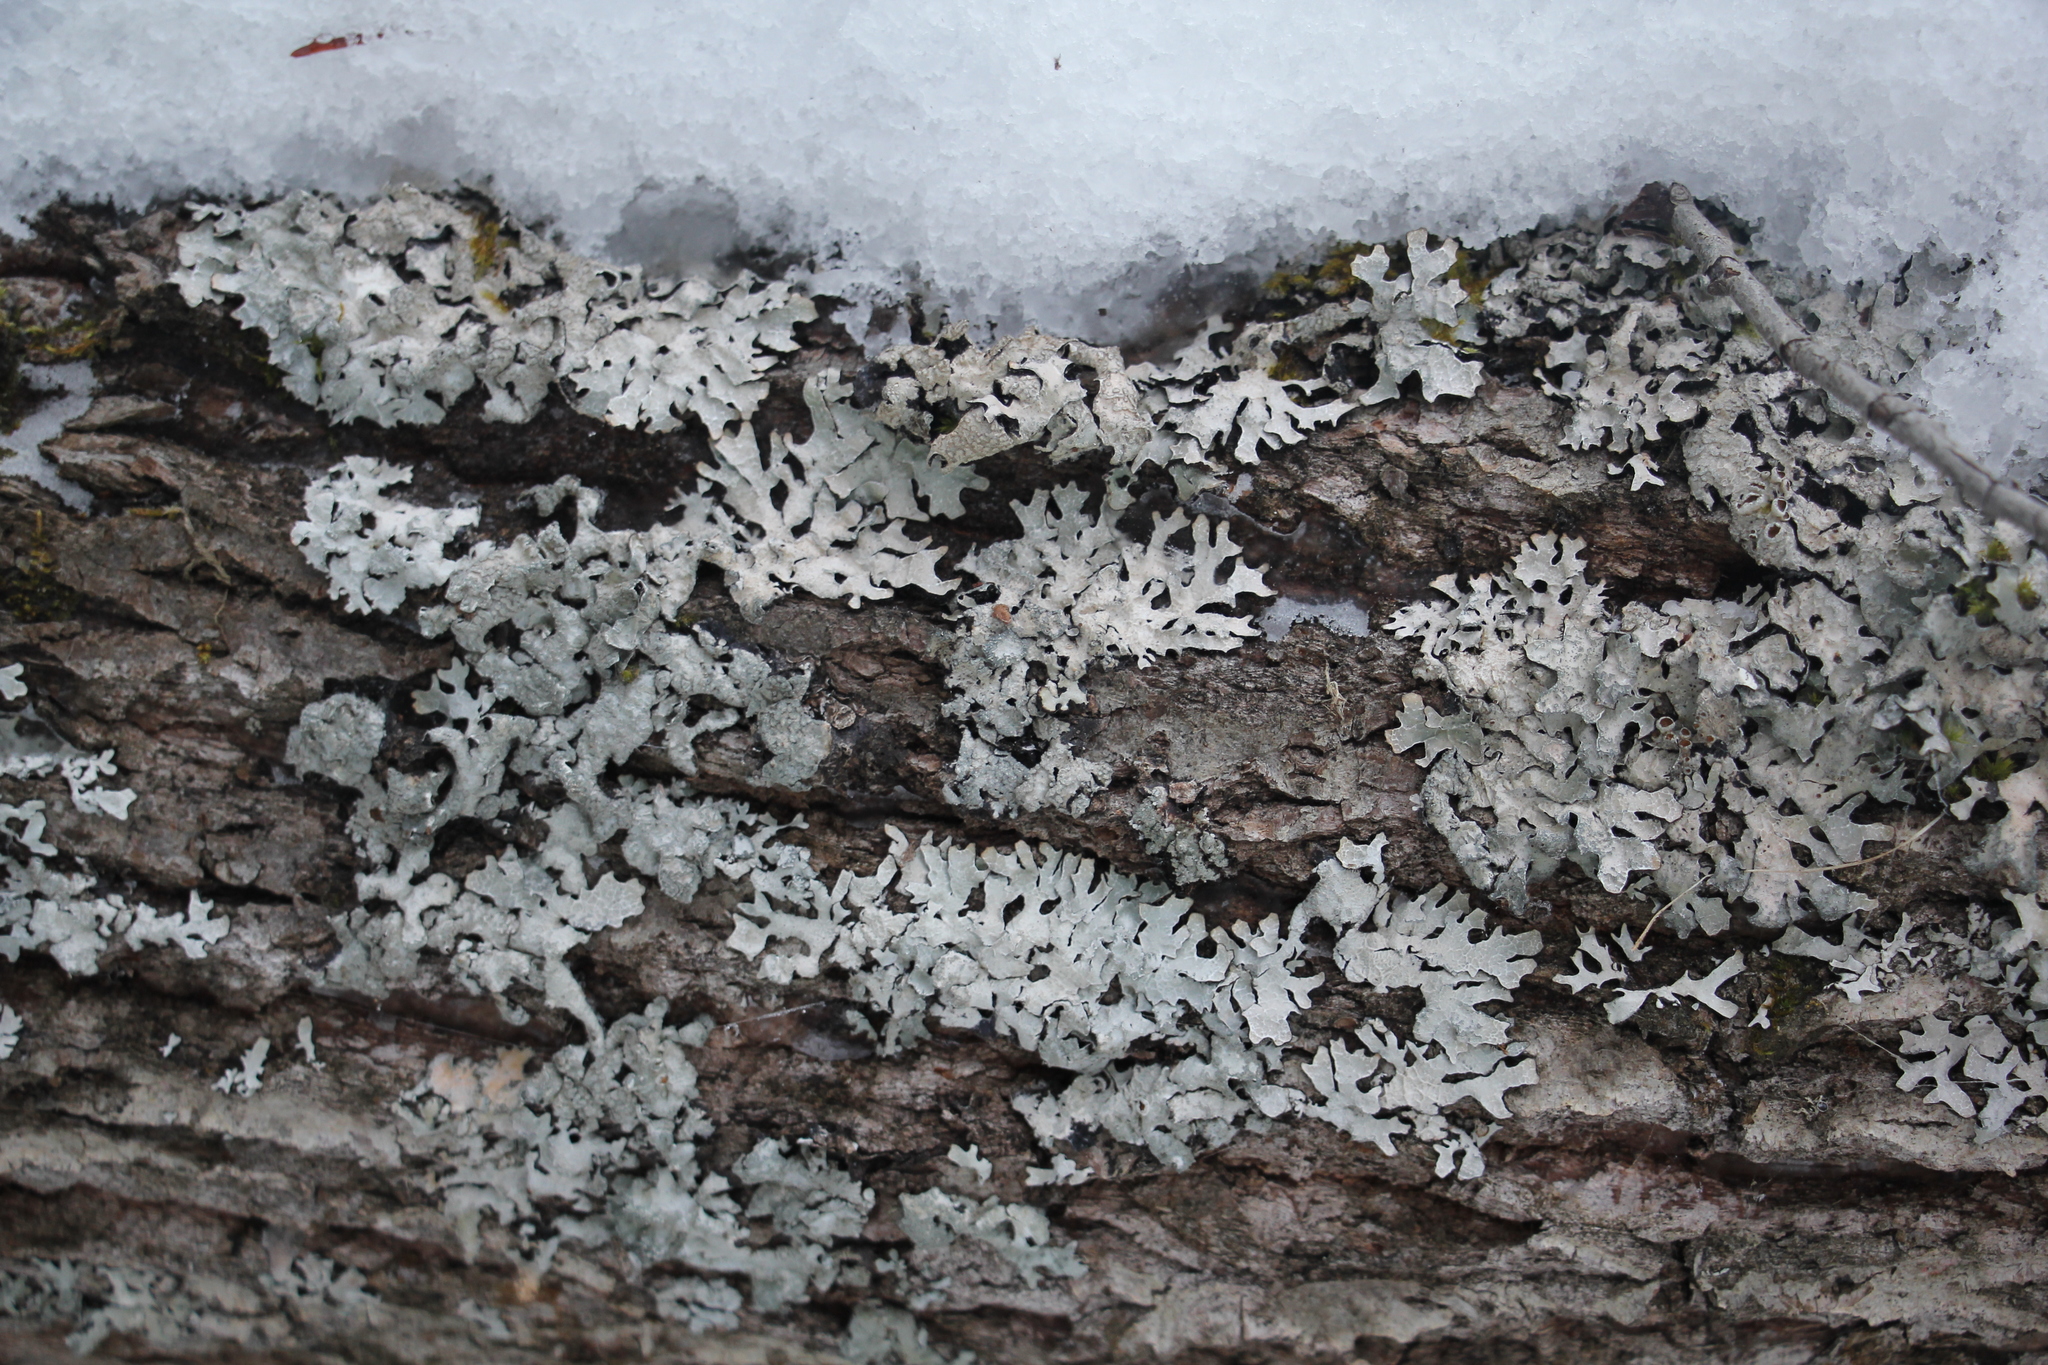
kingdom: Fungi
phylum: Ascomycota
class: Lecanoromycetes
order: Lecanorales
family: Parmeliaceae
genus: Parmelia
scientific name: Parmelia sulcata
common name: Netted shield lichen
